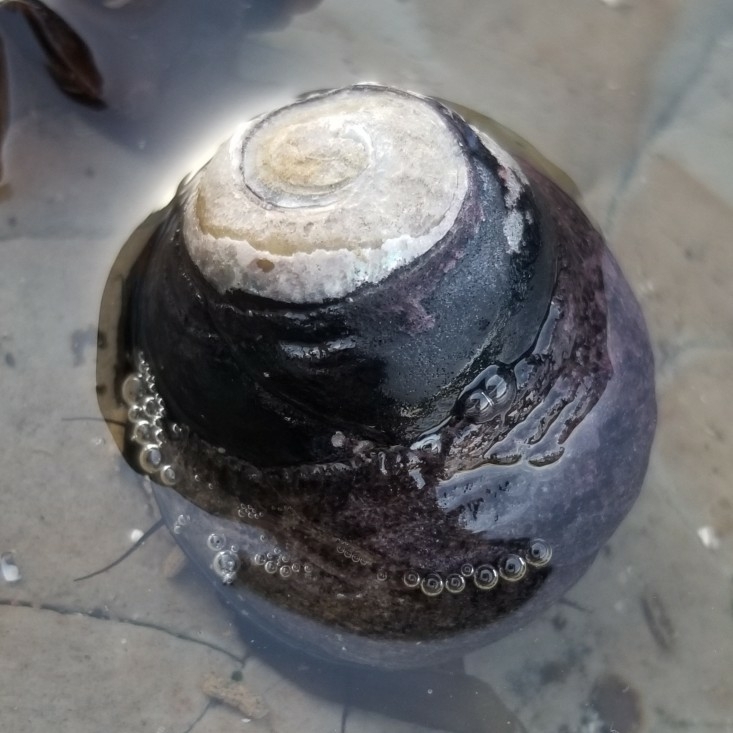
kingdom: Animalia
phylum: Mollusca
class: Gastropoda
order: Trochida
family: Tegulidae
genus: Tegula
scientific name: Tegula funebralis
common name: Black tegula
